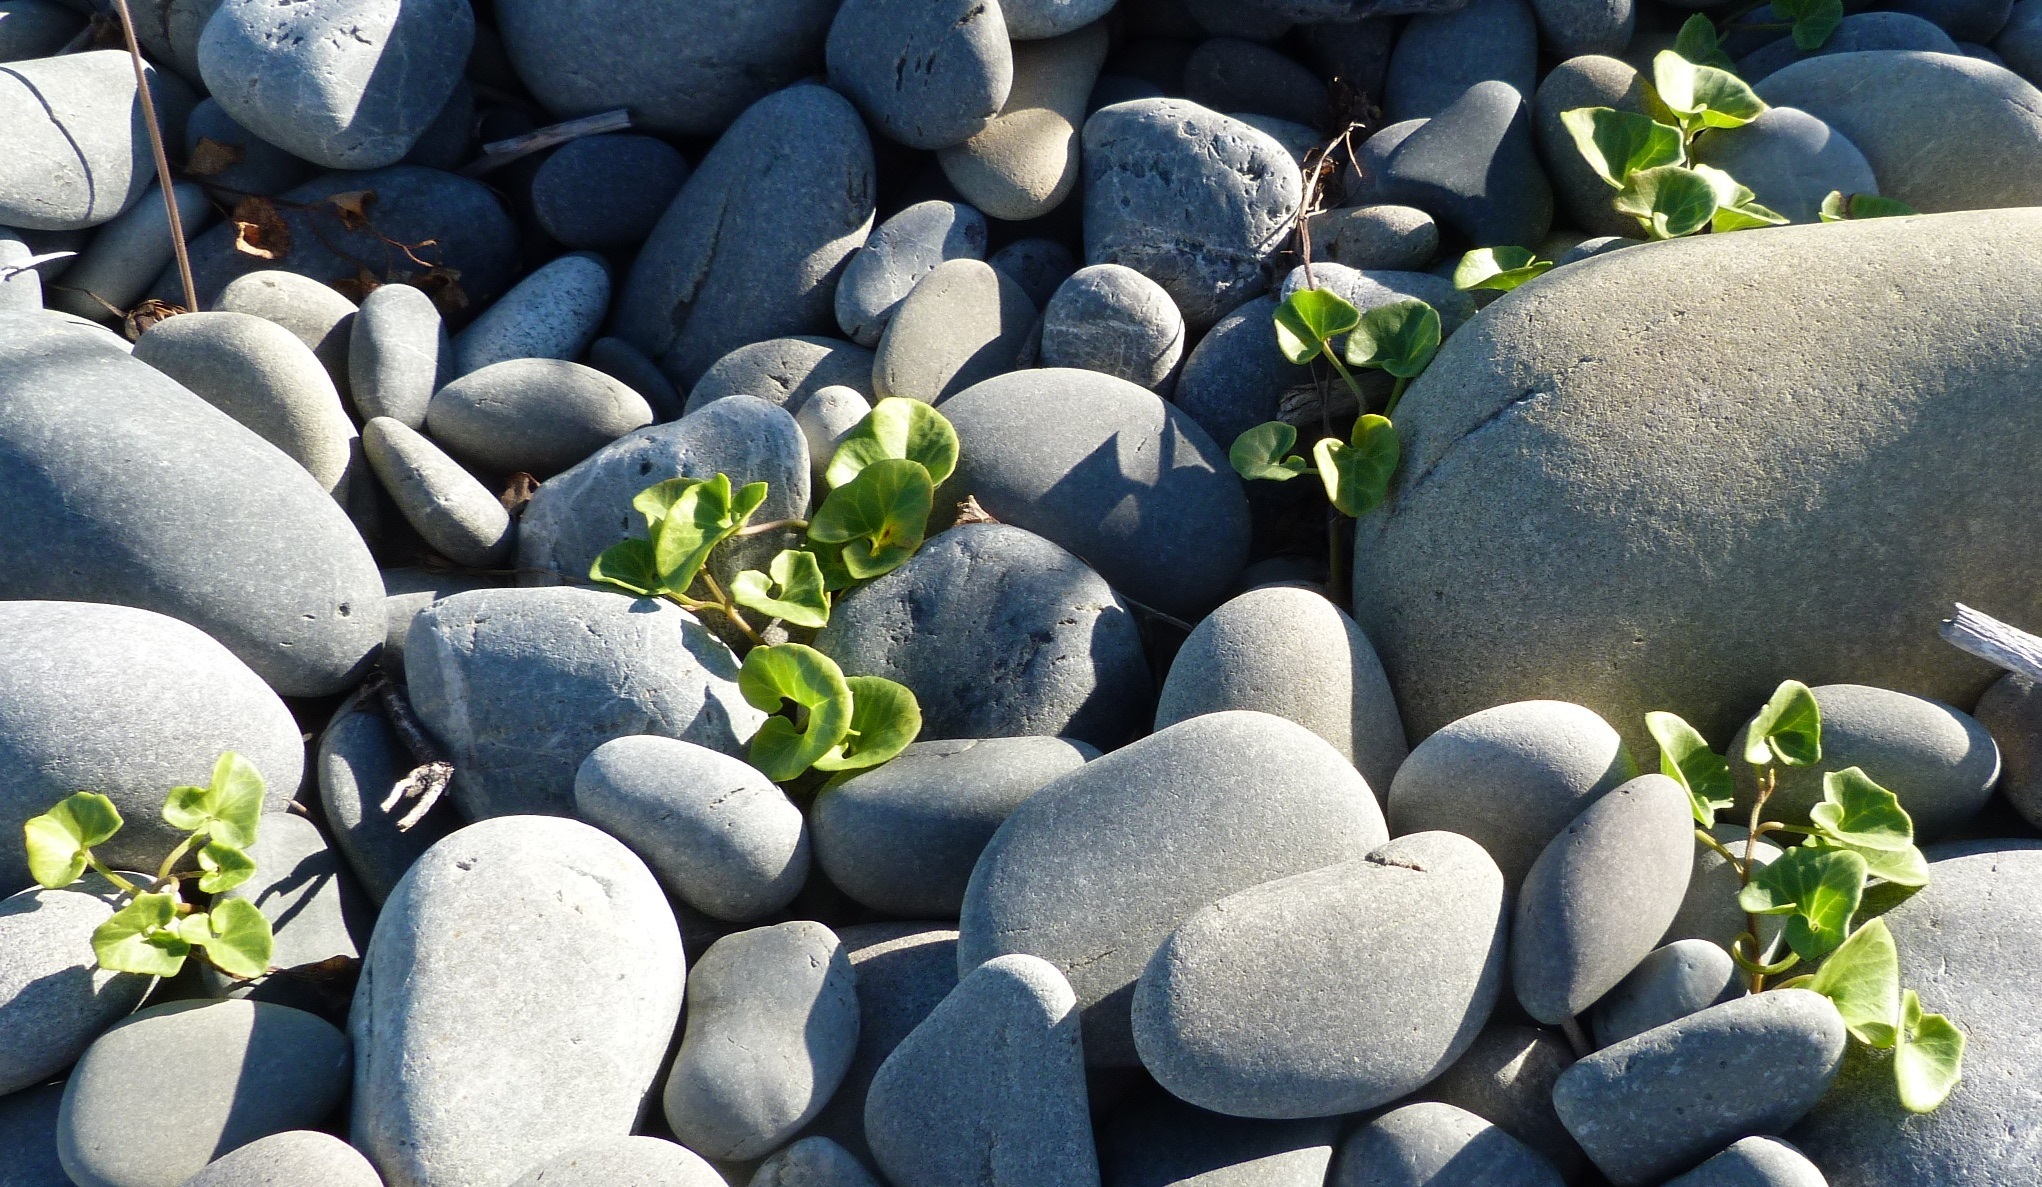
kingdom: Plantae
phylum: Tracheophyta
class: Magnoliopsida
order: Solanales
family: Convolvulaceae
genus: Calystegia
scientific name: Calystegia soldanella
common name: Sea bindweed
